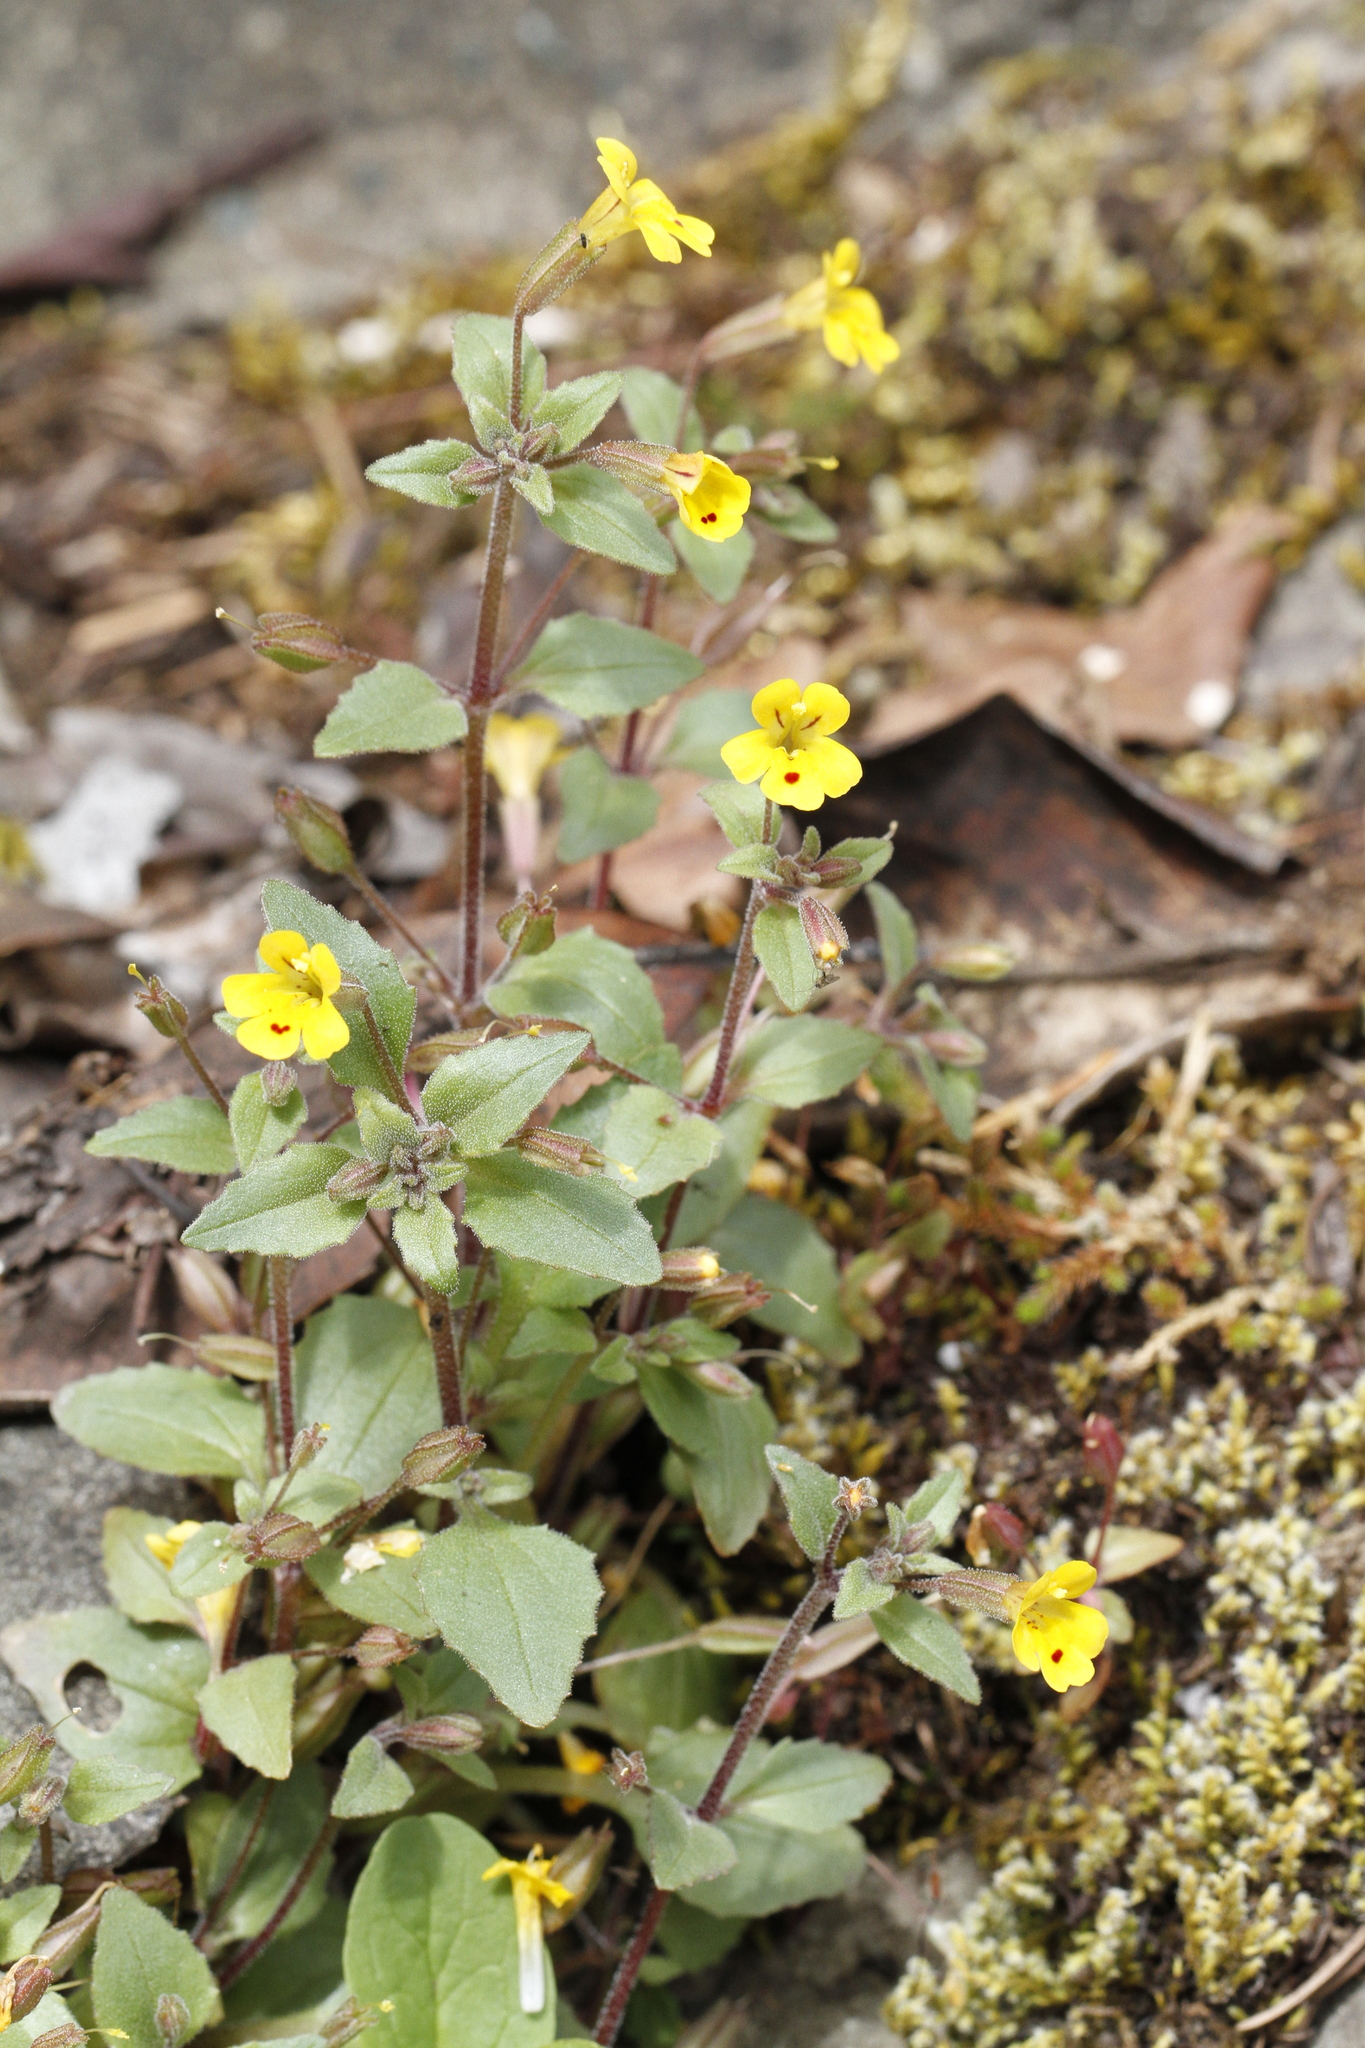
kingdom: Plantae
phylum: Tracheophyta
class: Magnoliopsida
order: Lamiales
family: Phrymaceae
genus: Erythranthe
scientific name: Erythranthe alsinoides
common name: Chickweed monkeyflower
